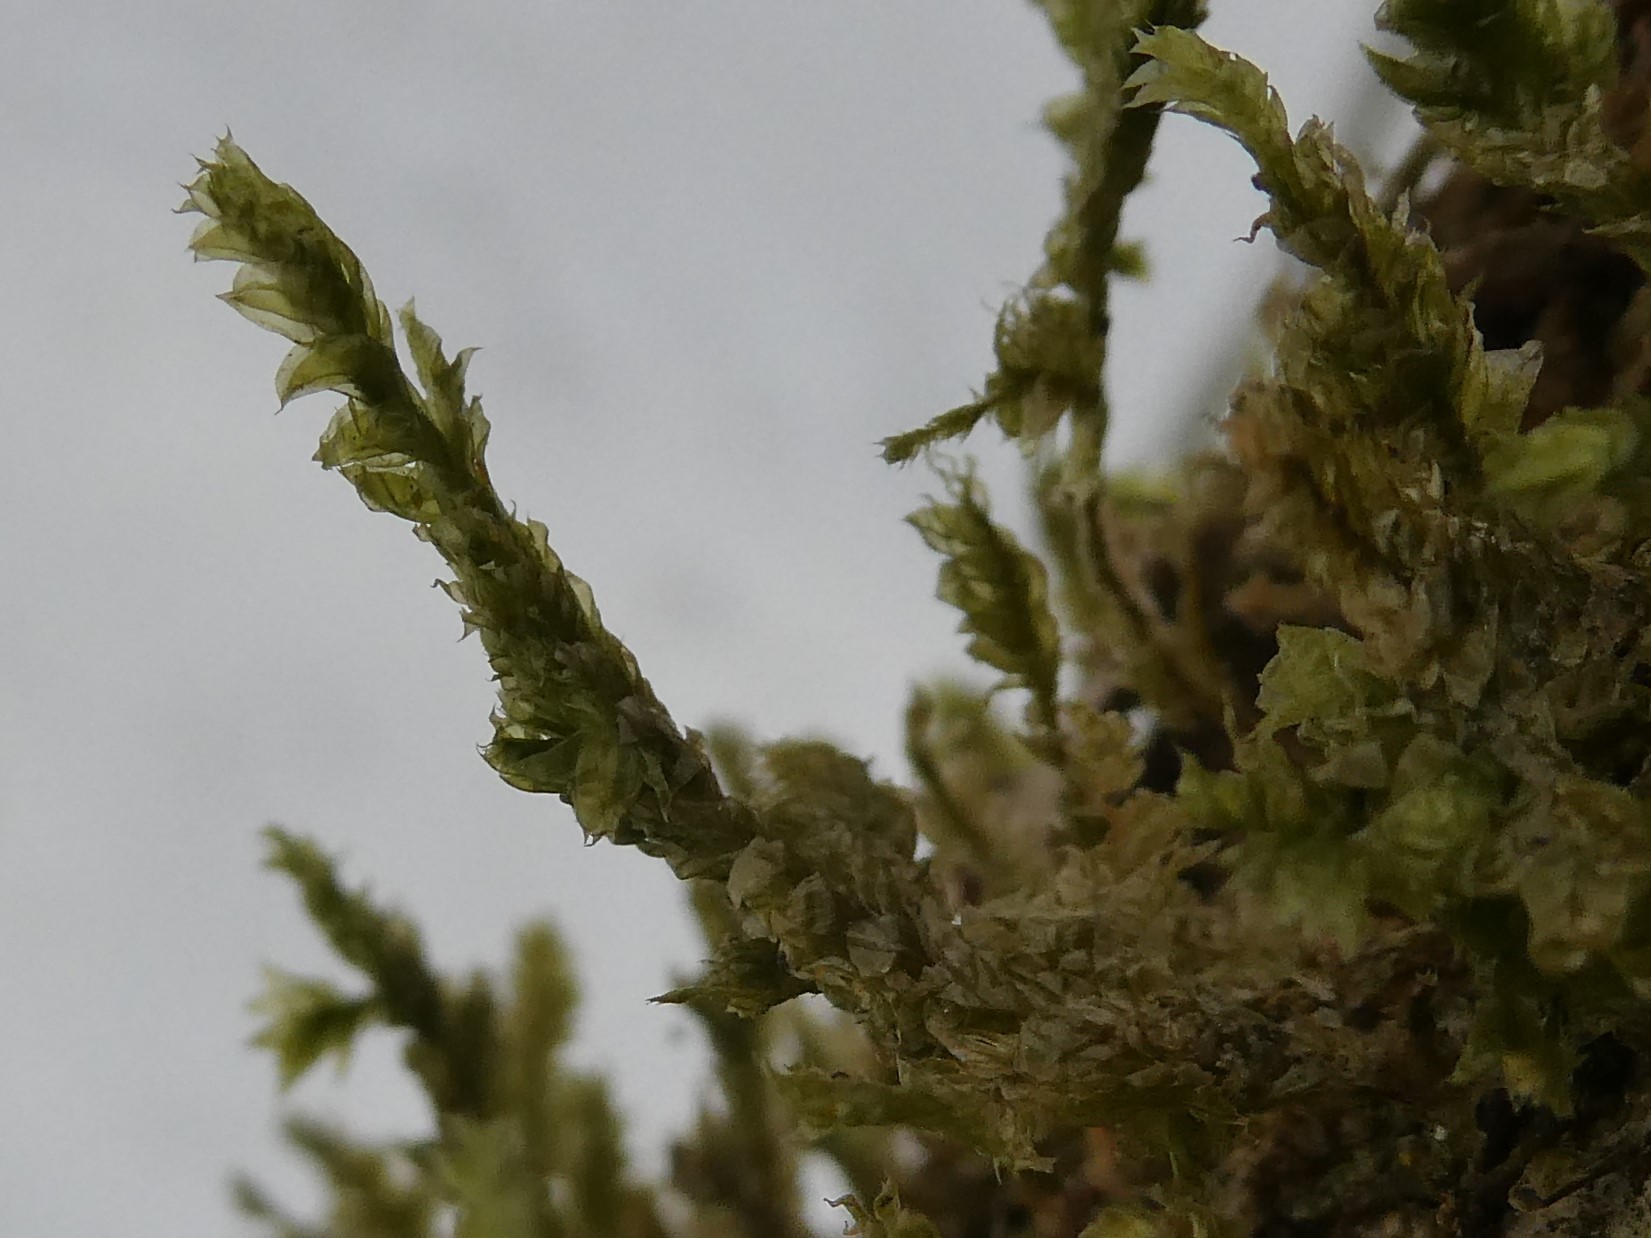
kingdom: Plantae
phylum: Bryophyta
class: Bryopsida
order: Hypnales
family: Neckeraceae
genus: Neckera
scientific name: Neckera pennata
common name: Feathery neckera
